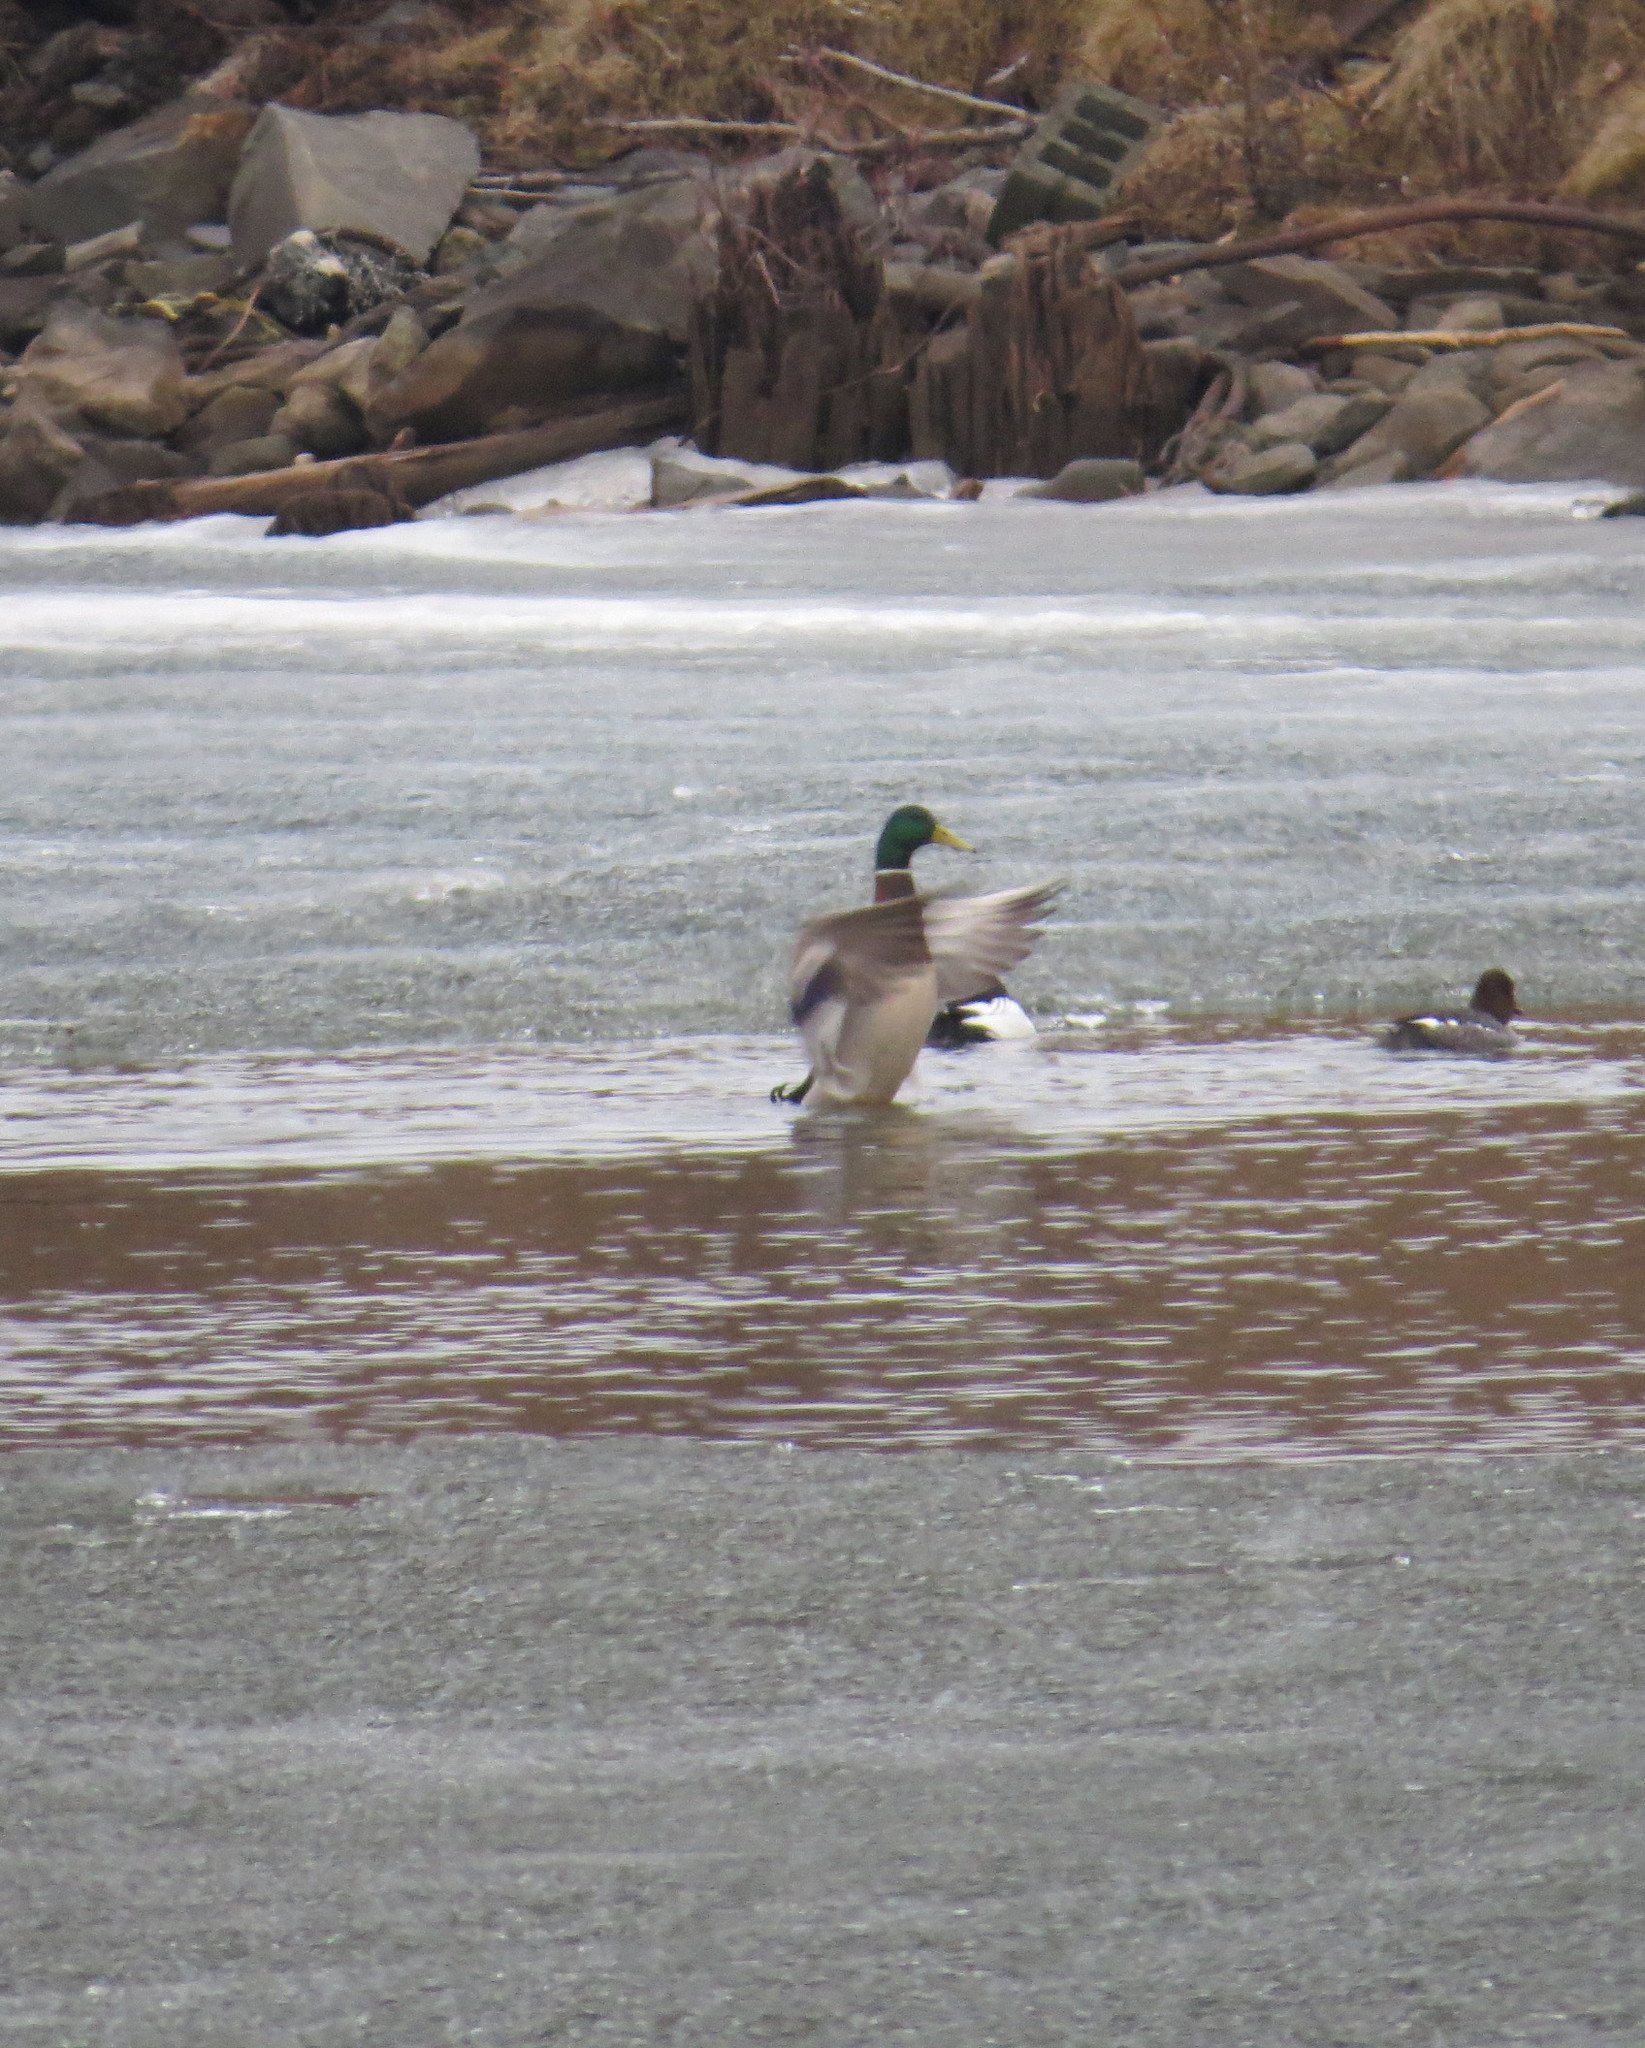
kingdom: Animalia
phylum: Chordata
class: Aves
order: Anseriformes
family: Anatidae
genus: Anas
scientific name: Anas platyrhynchos
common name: Mallard
